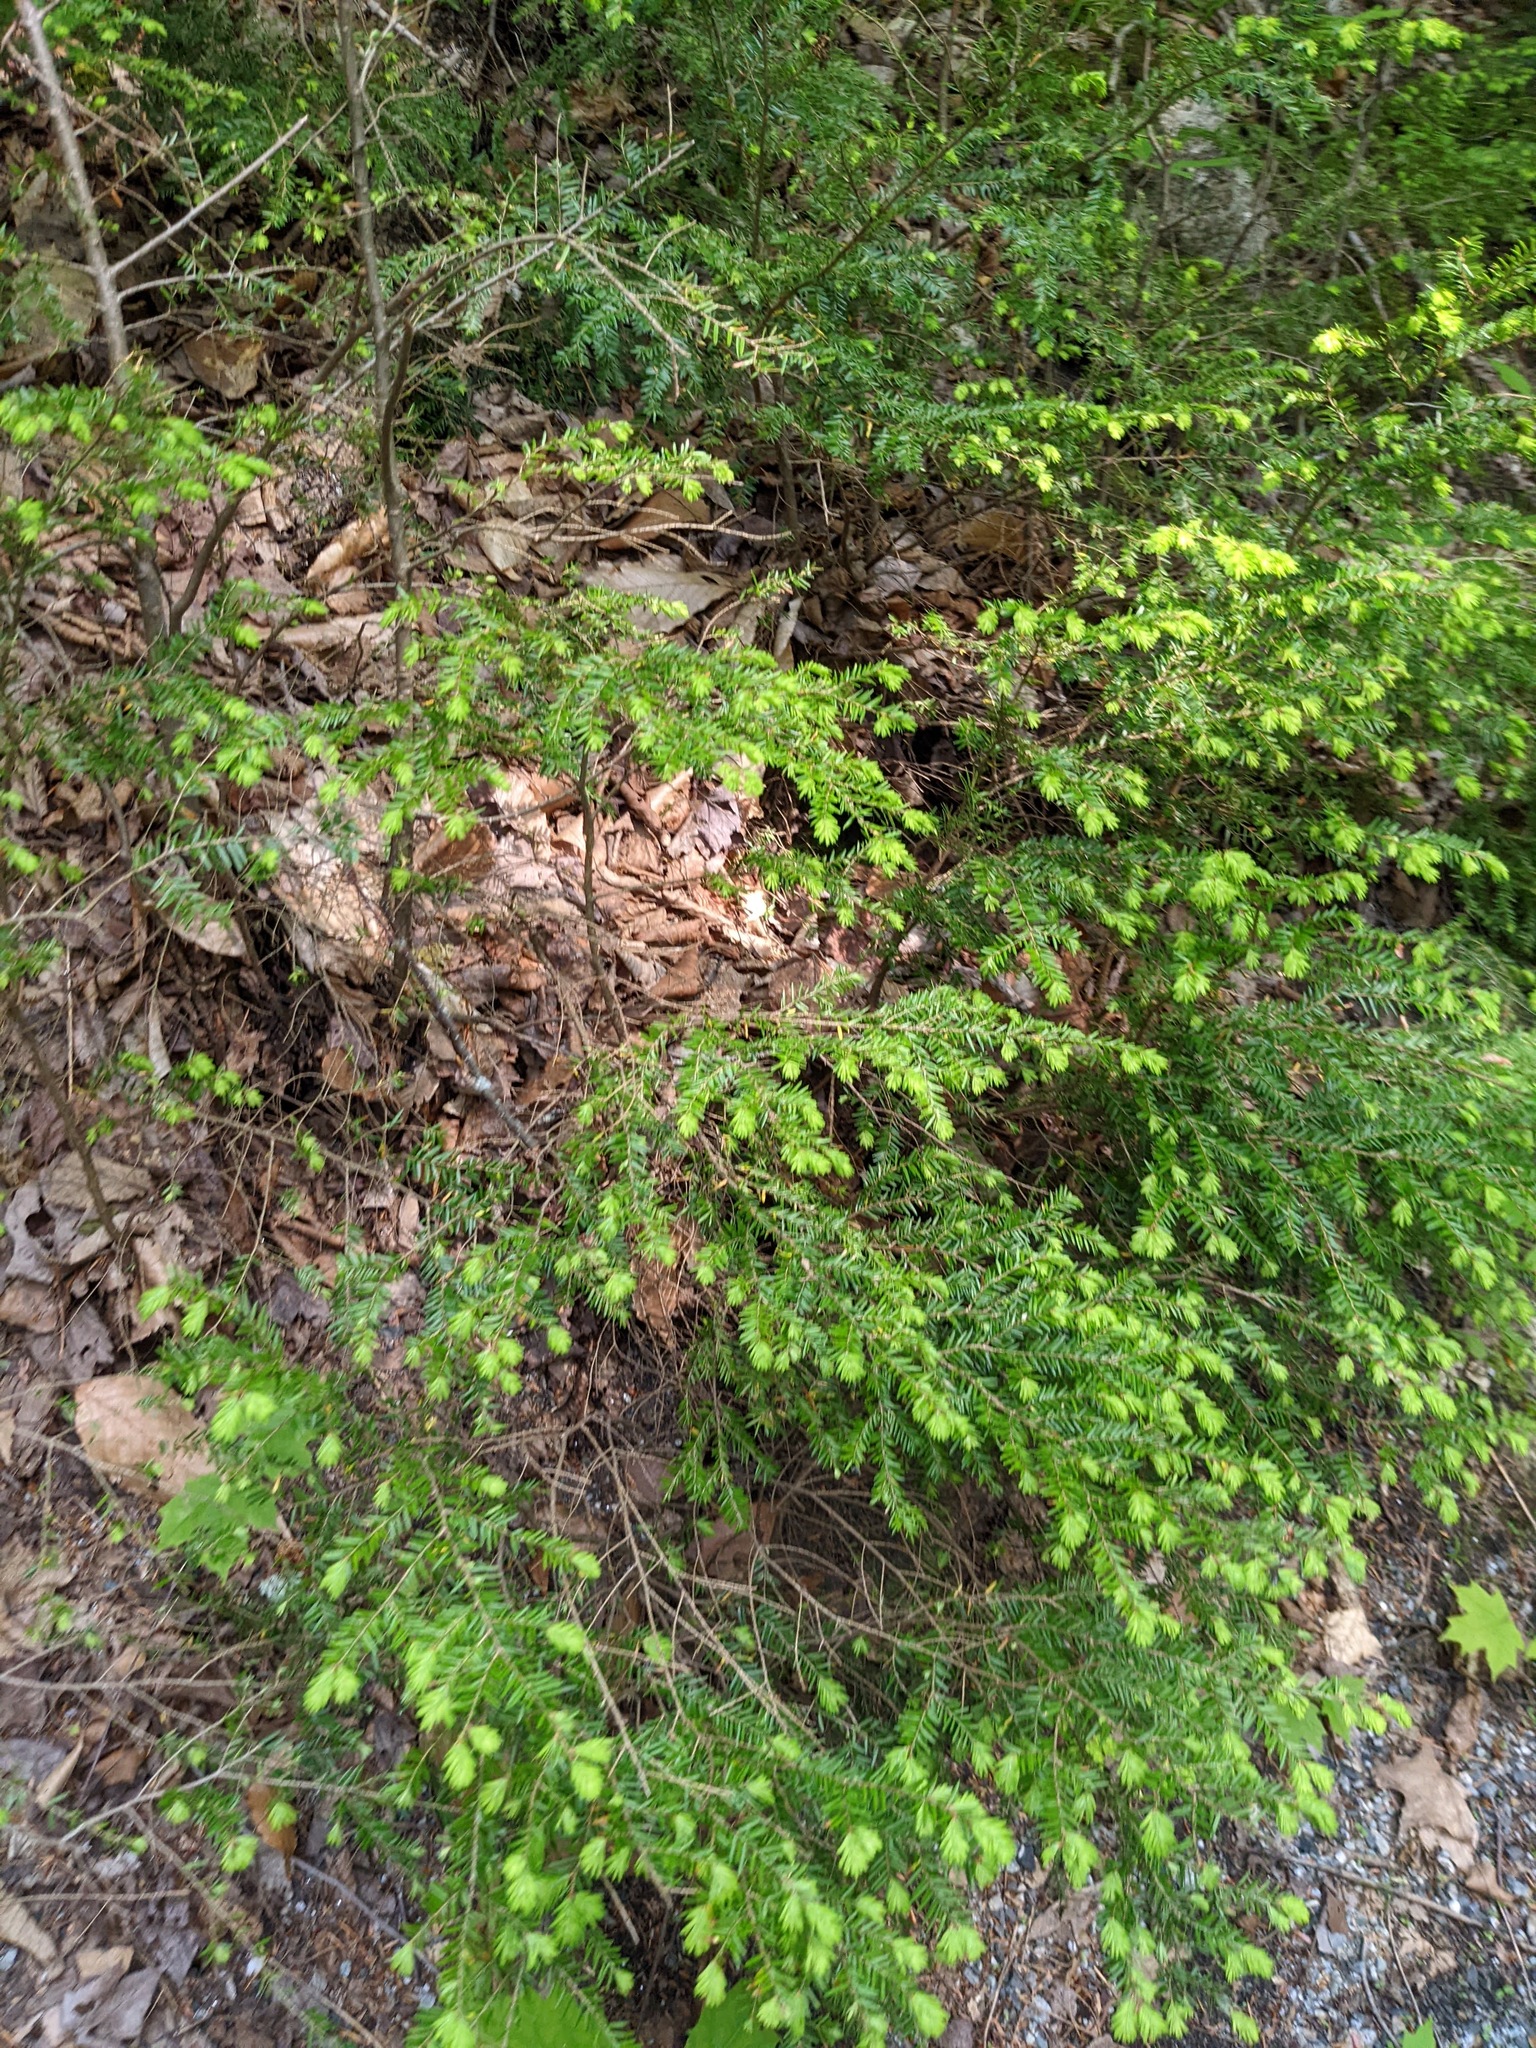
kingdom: Plantae
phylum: Tracheophyta
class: Pinopsida
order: Pinales
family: Pinaceae
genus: Tsuga
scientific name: Tsuga canadensis
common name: Eastern hemlock
